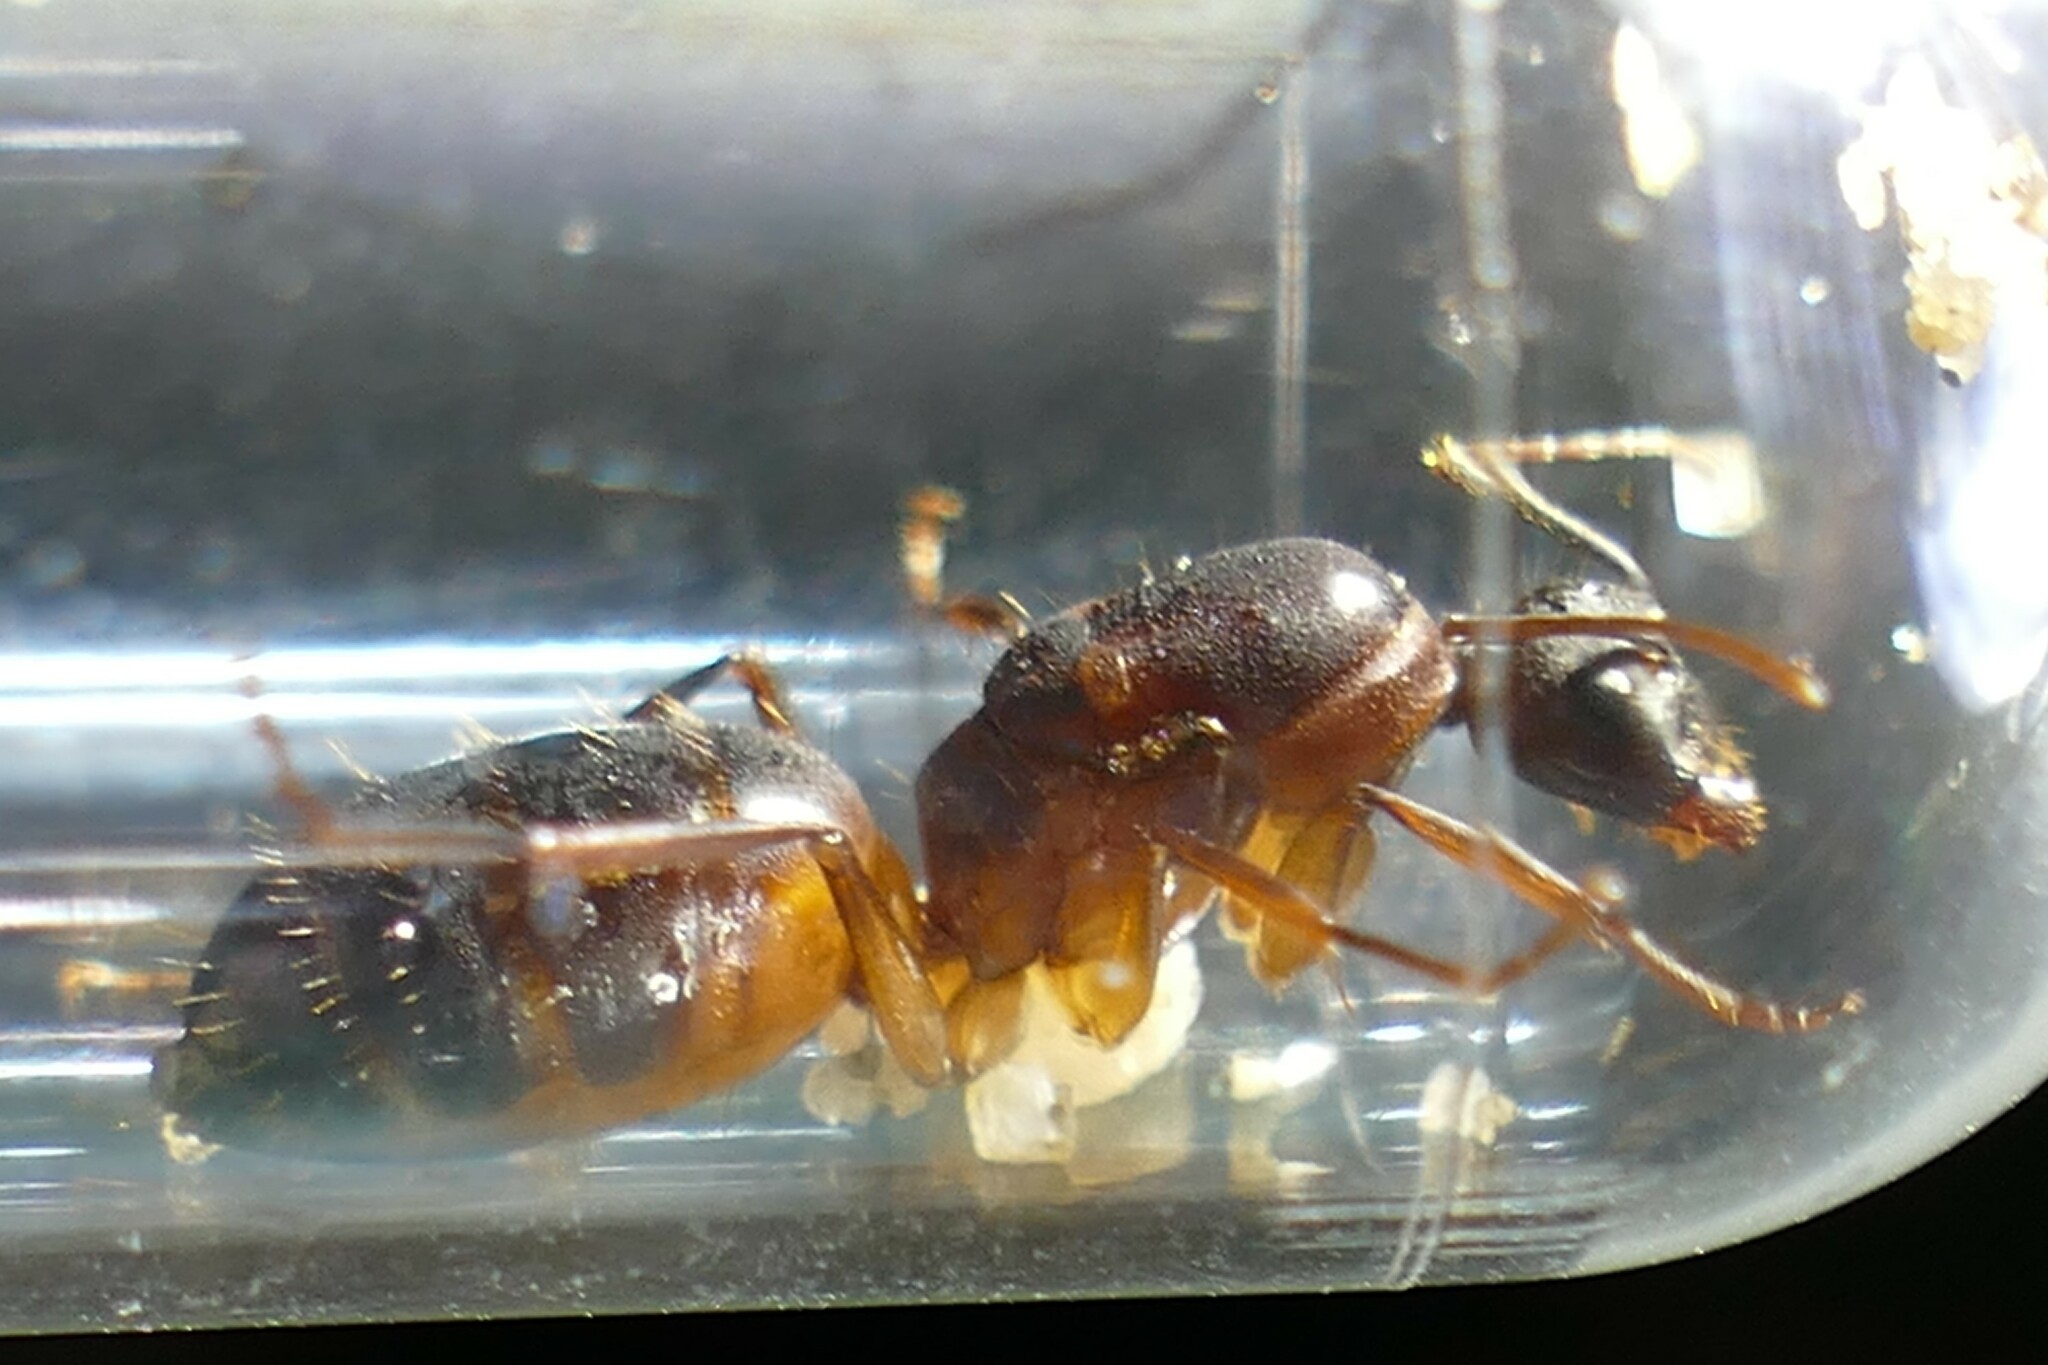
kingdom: Animalia
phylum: Arthropoda
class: Insecta
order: Hymenoptera
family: Formicidae
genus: Camponotus
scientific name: Camponotus pilicornis
